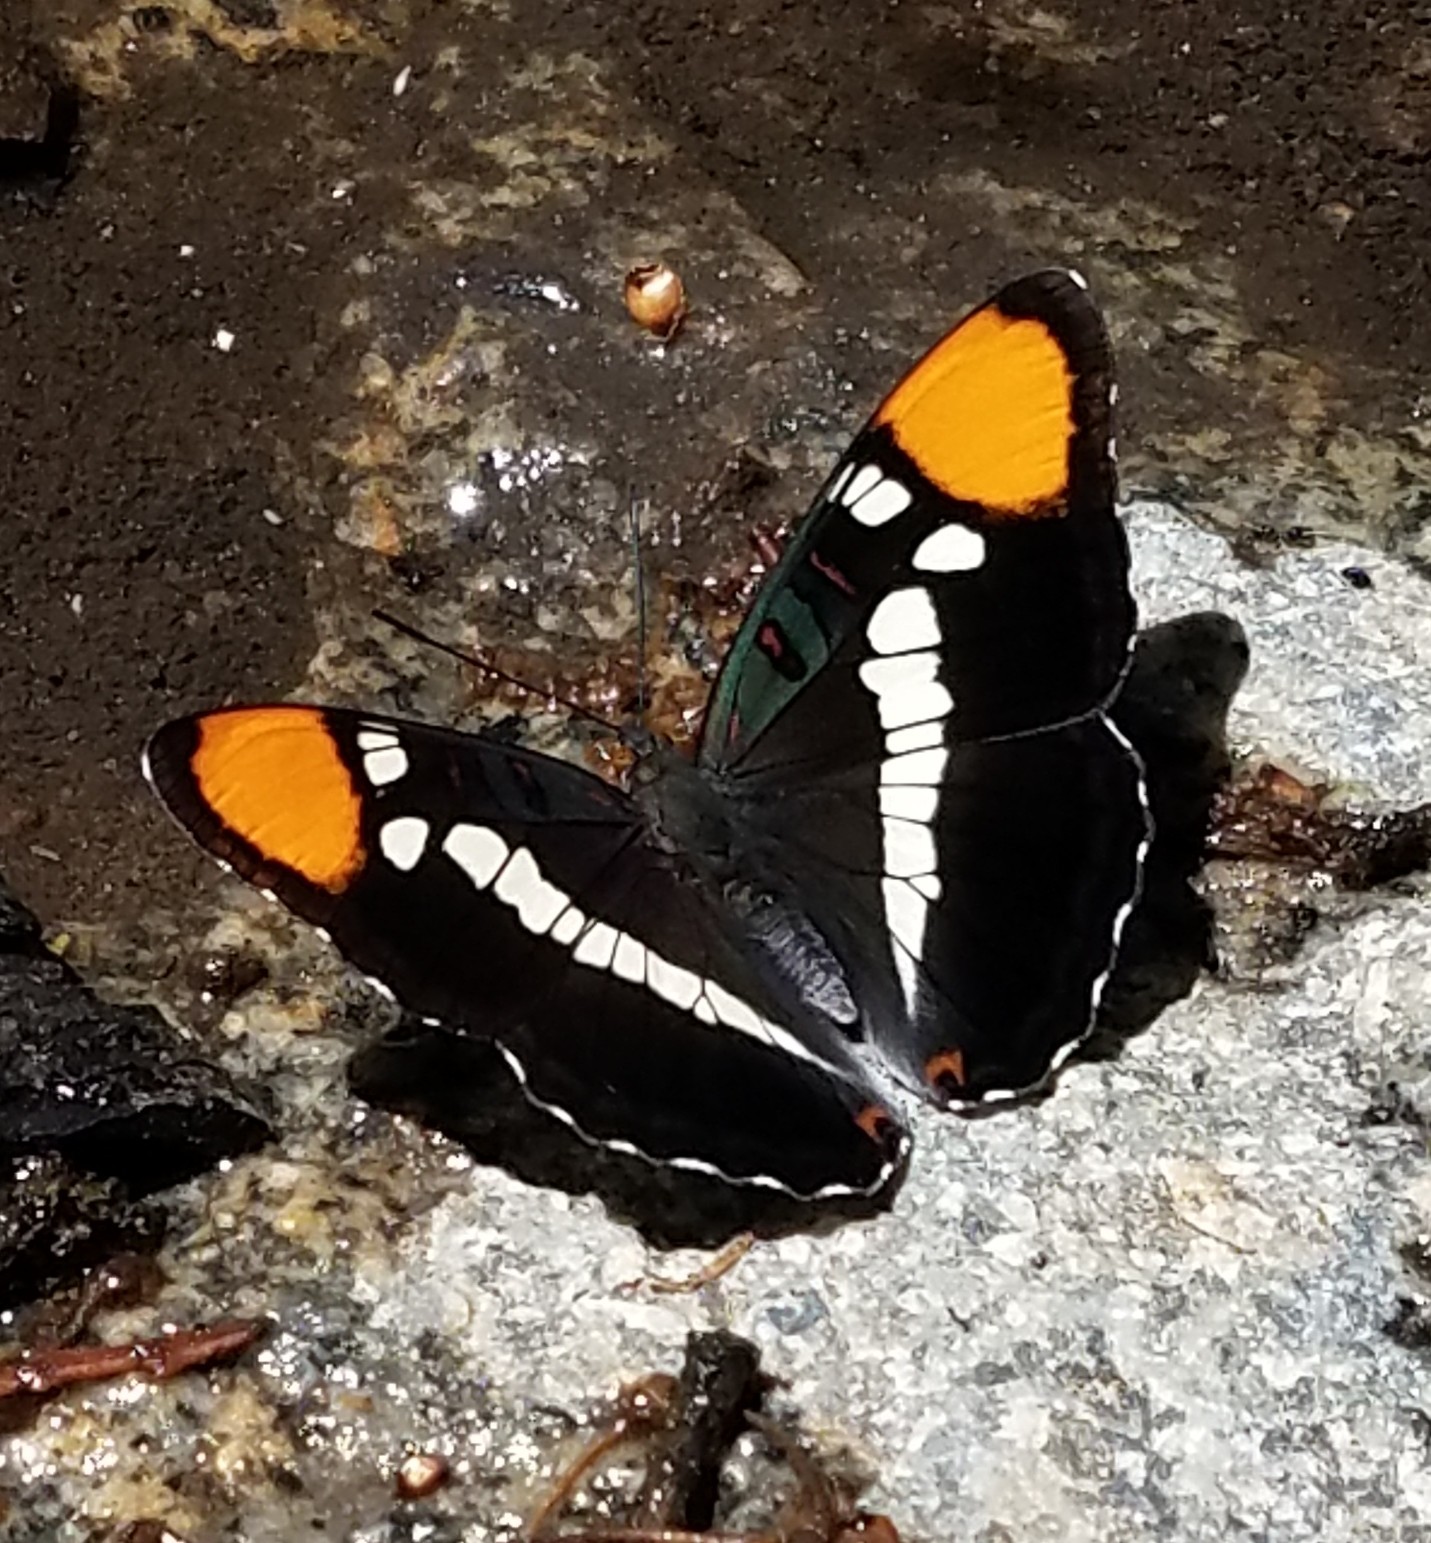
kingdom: Animalia
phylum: Arthropoda
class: Insecta
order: Lepidoptera
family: Nymphalidae
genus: Limenitis
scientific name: Limenitis bredowii
